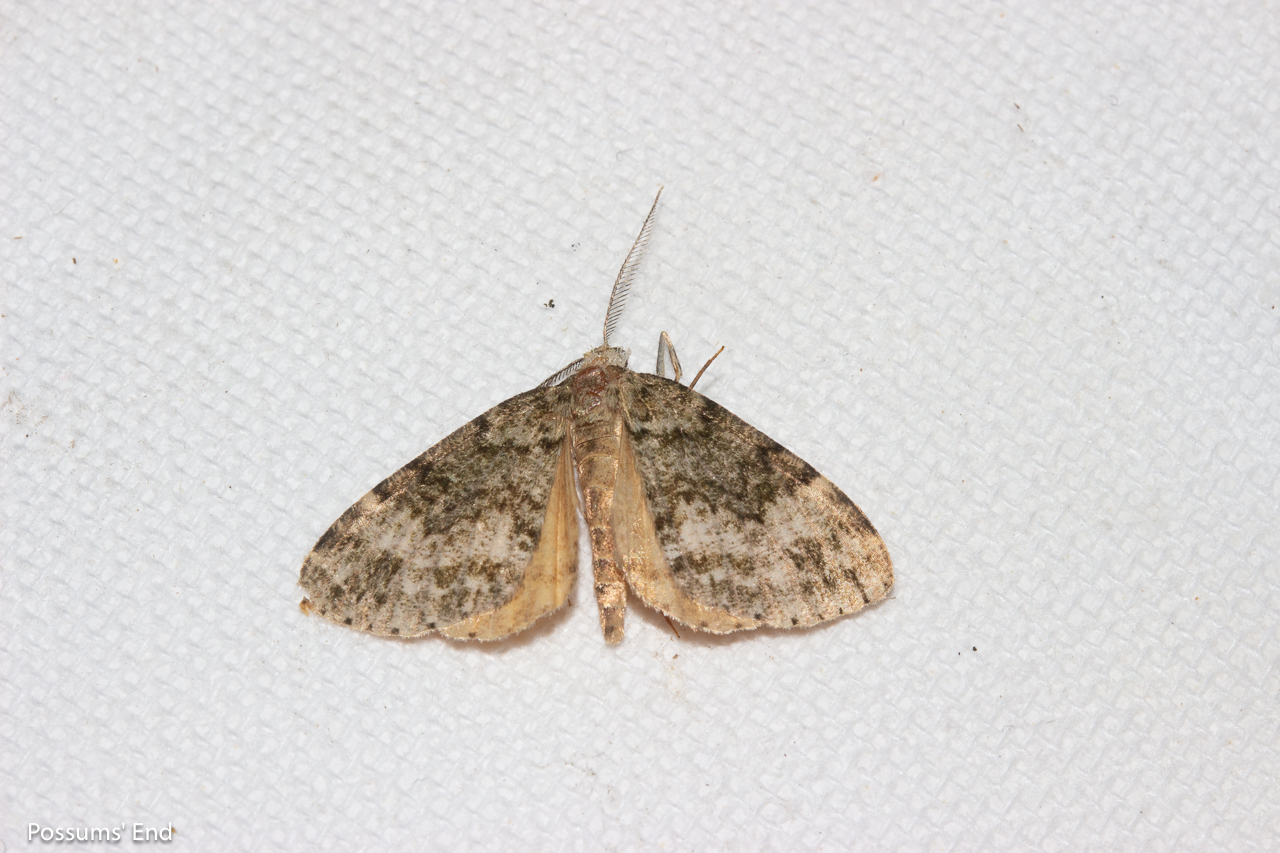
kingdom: Animalia
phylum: Arthropoda
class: Insecta
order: Lepidoptera
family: Geometridae
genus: Pseudocoremia
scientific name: Pseudocoremia indistincta
